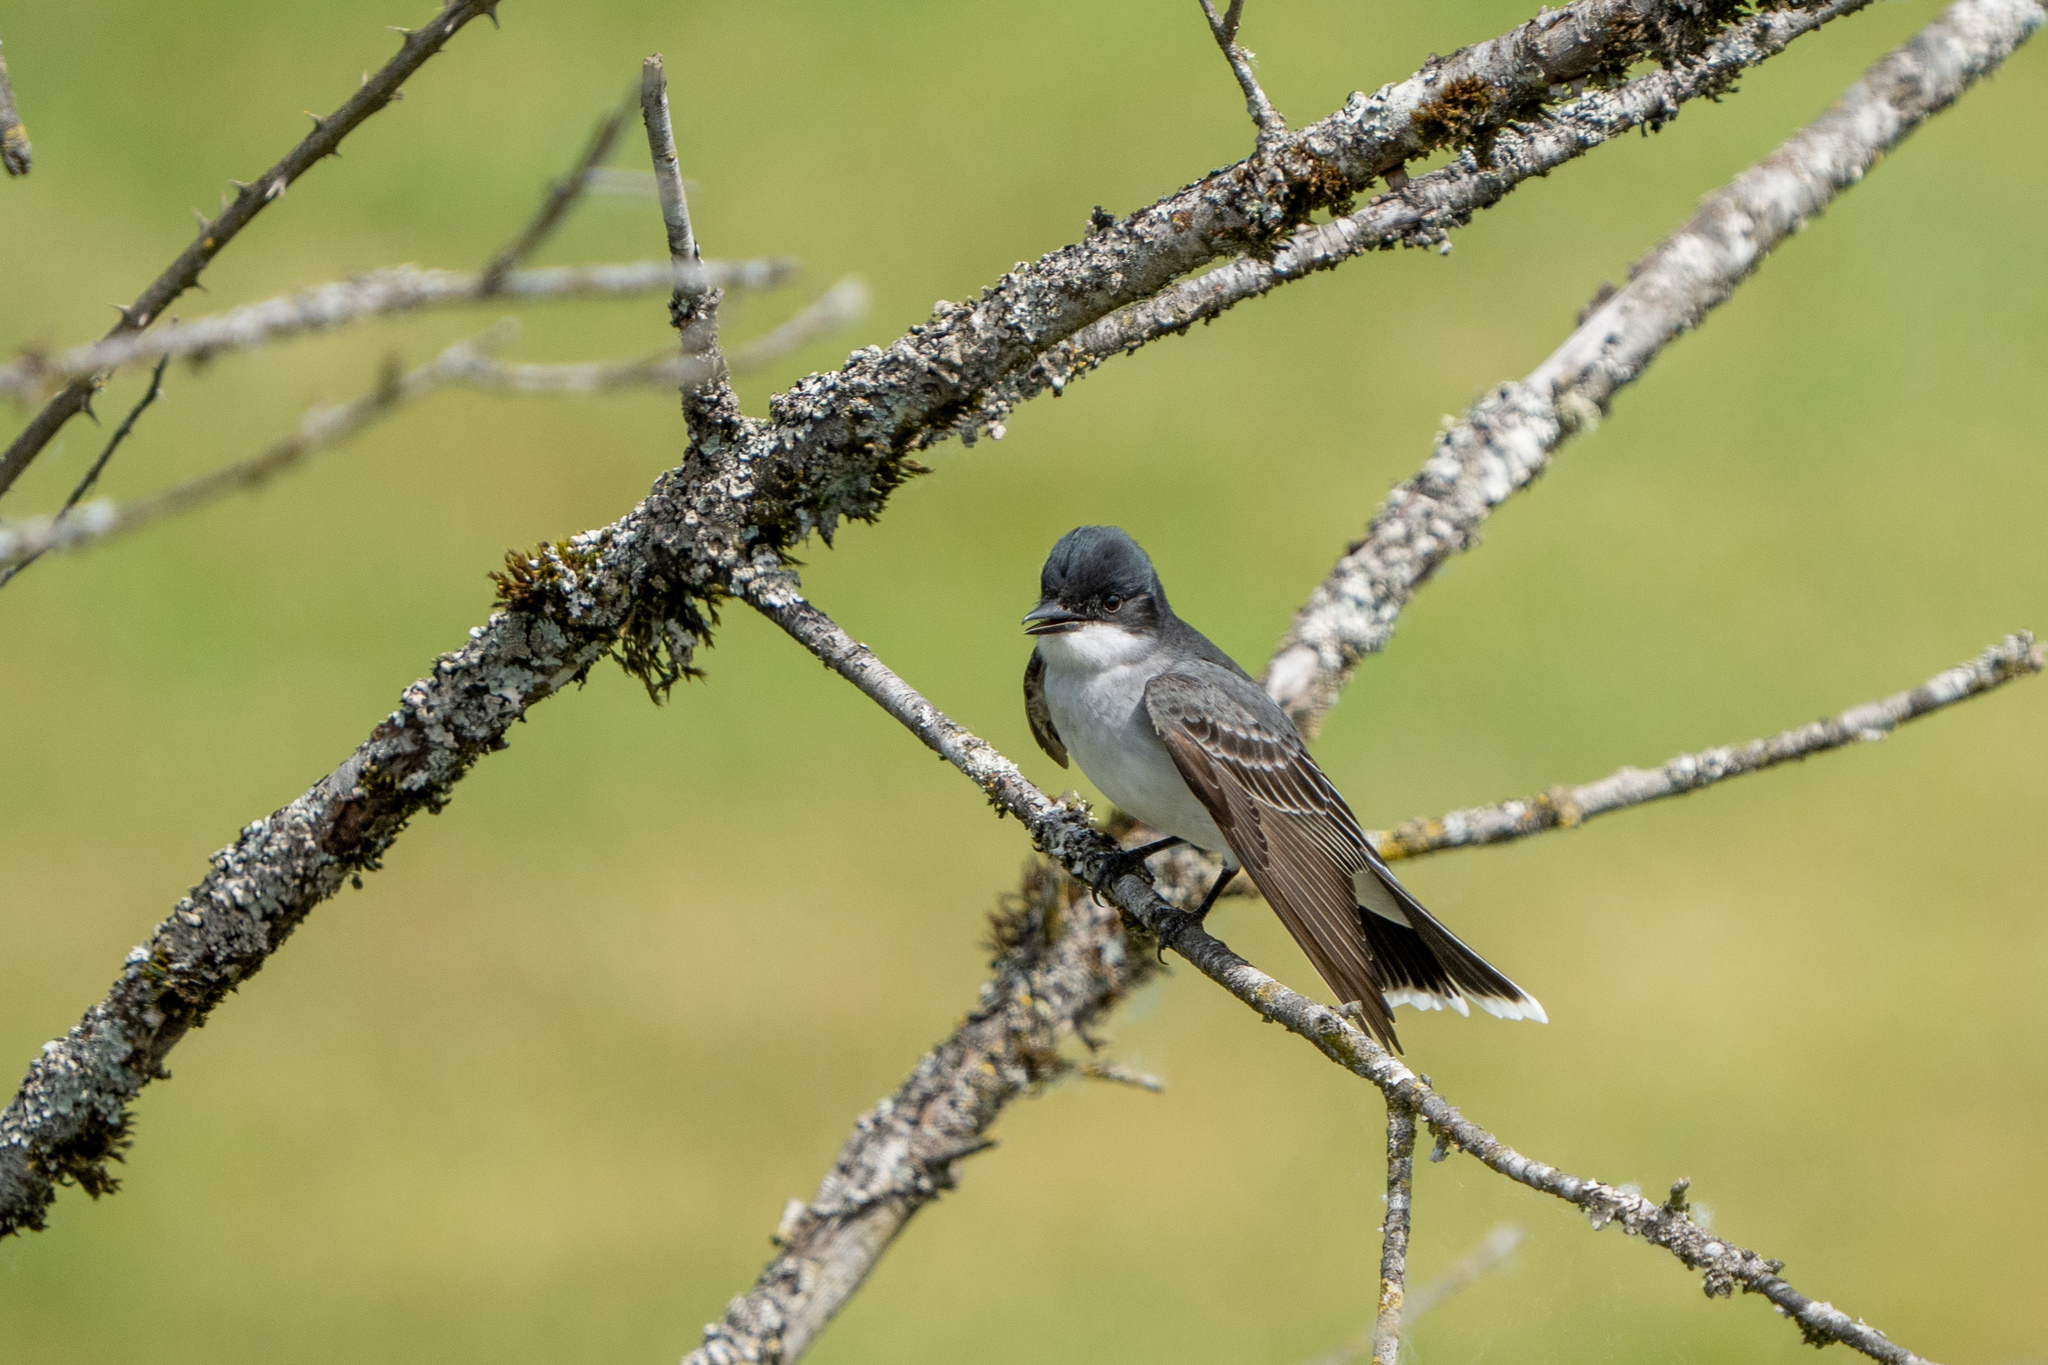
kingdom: Animalia
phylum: Chordata
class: Aves
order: Passeriformes
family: Tyrannidae
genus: Tyrannus
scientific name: Tyrannus tyrannus
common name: Eastern kingbird
